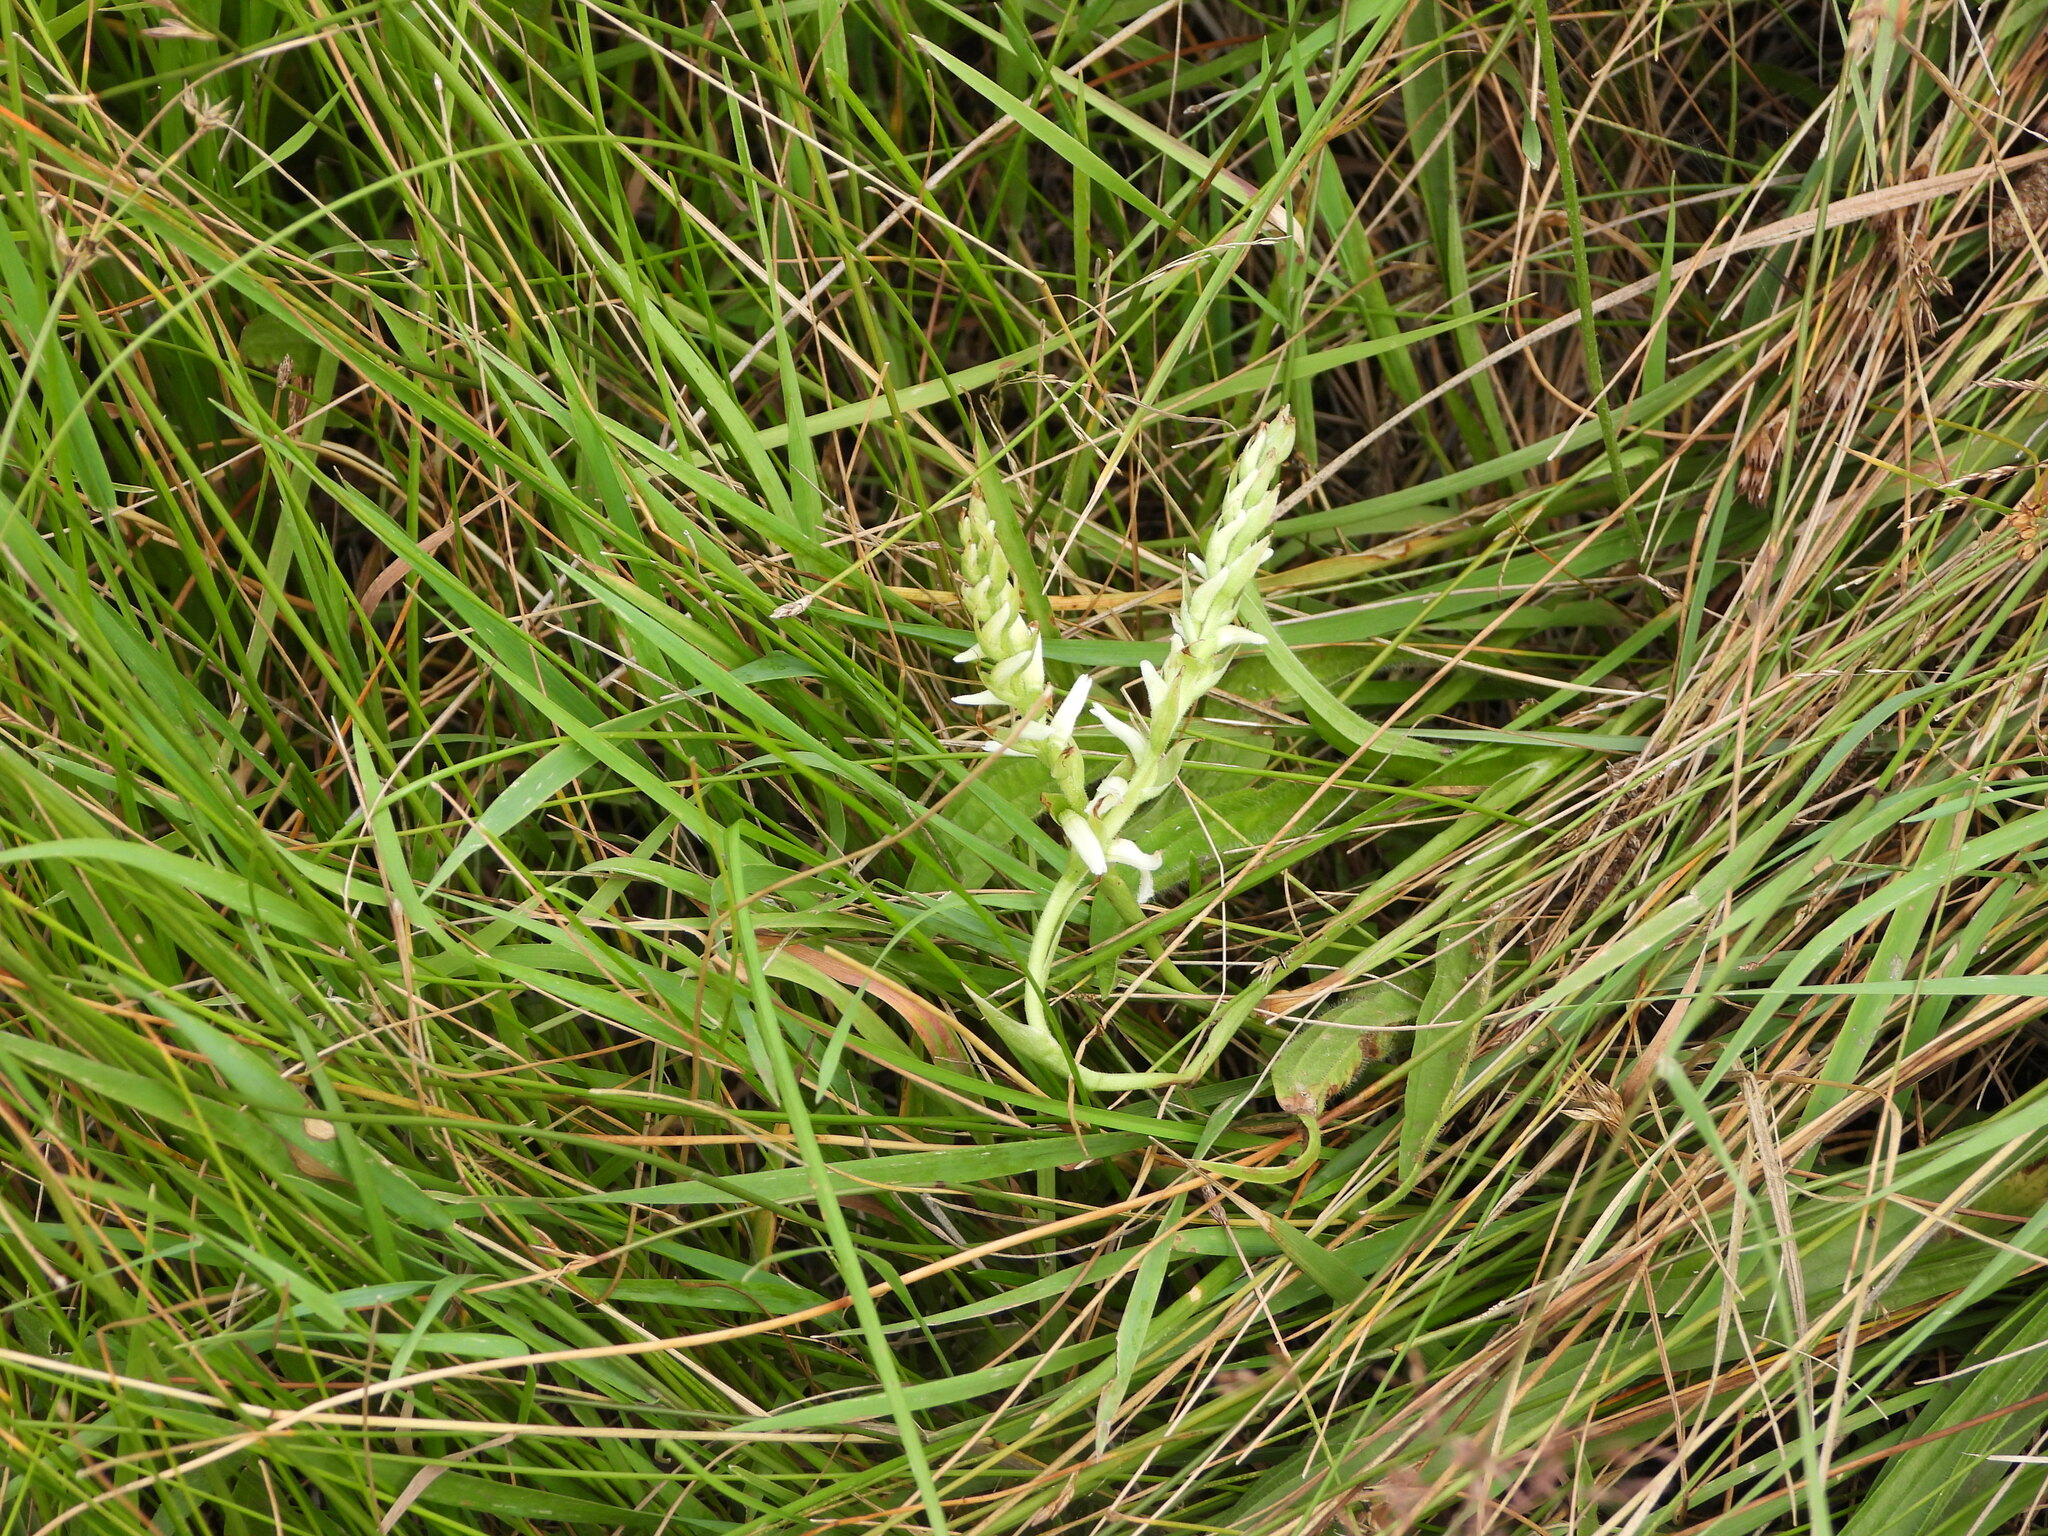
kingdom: Plantae
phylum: Tracheophyta
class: Liliopsida
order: Asparagales
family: Orchidaceae
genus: Spiranthes
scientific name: Spiranthes diluvialis
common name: Ute ladies'-tresses
